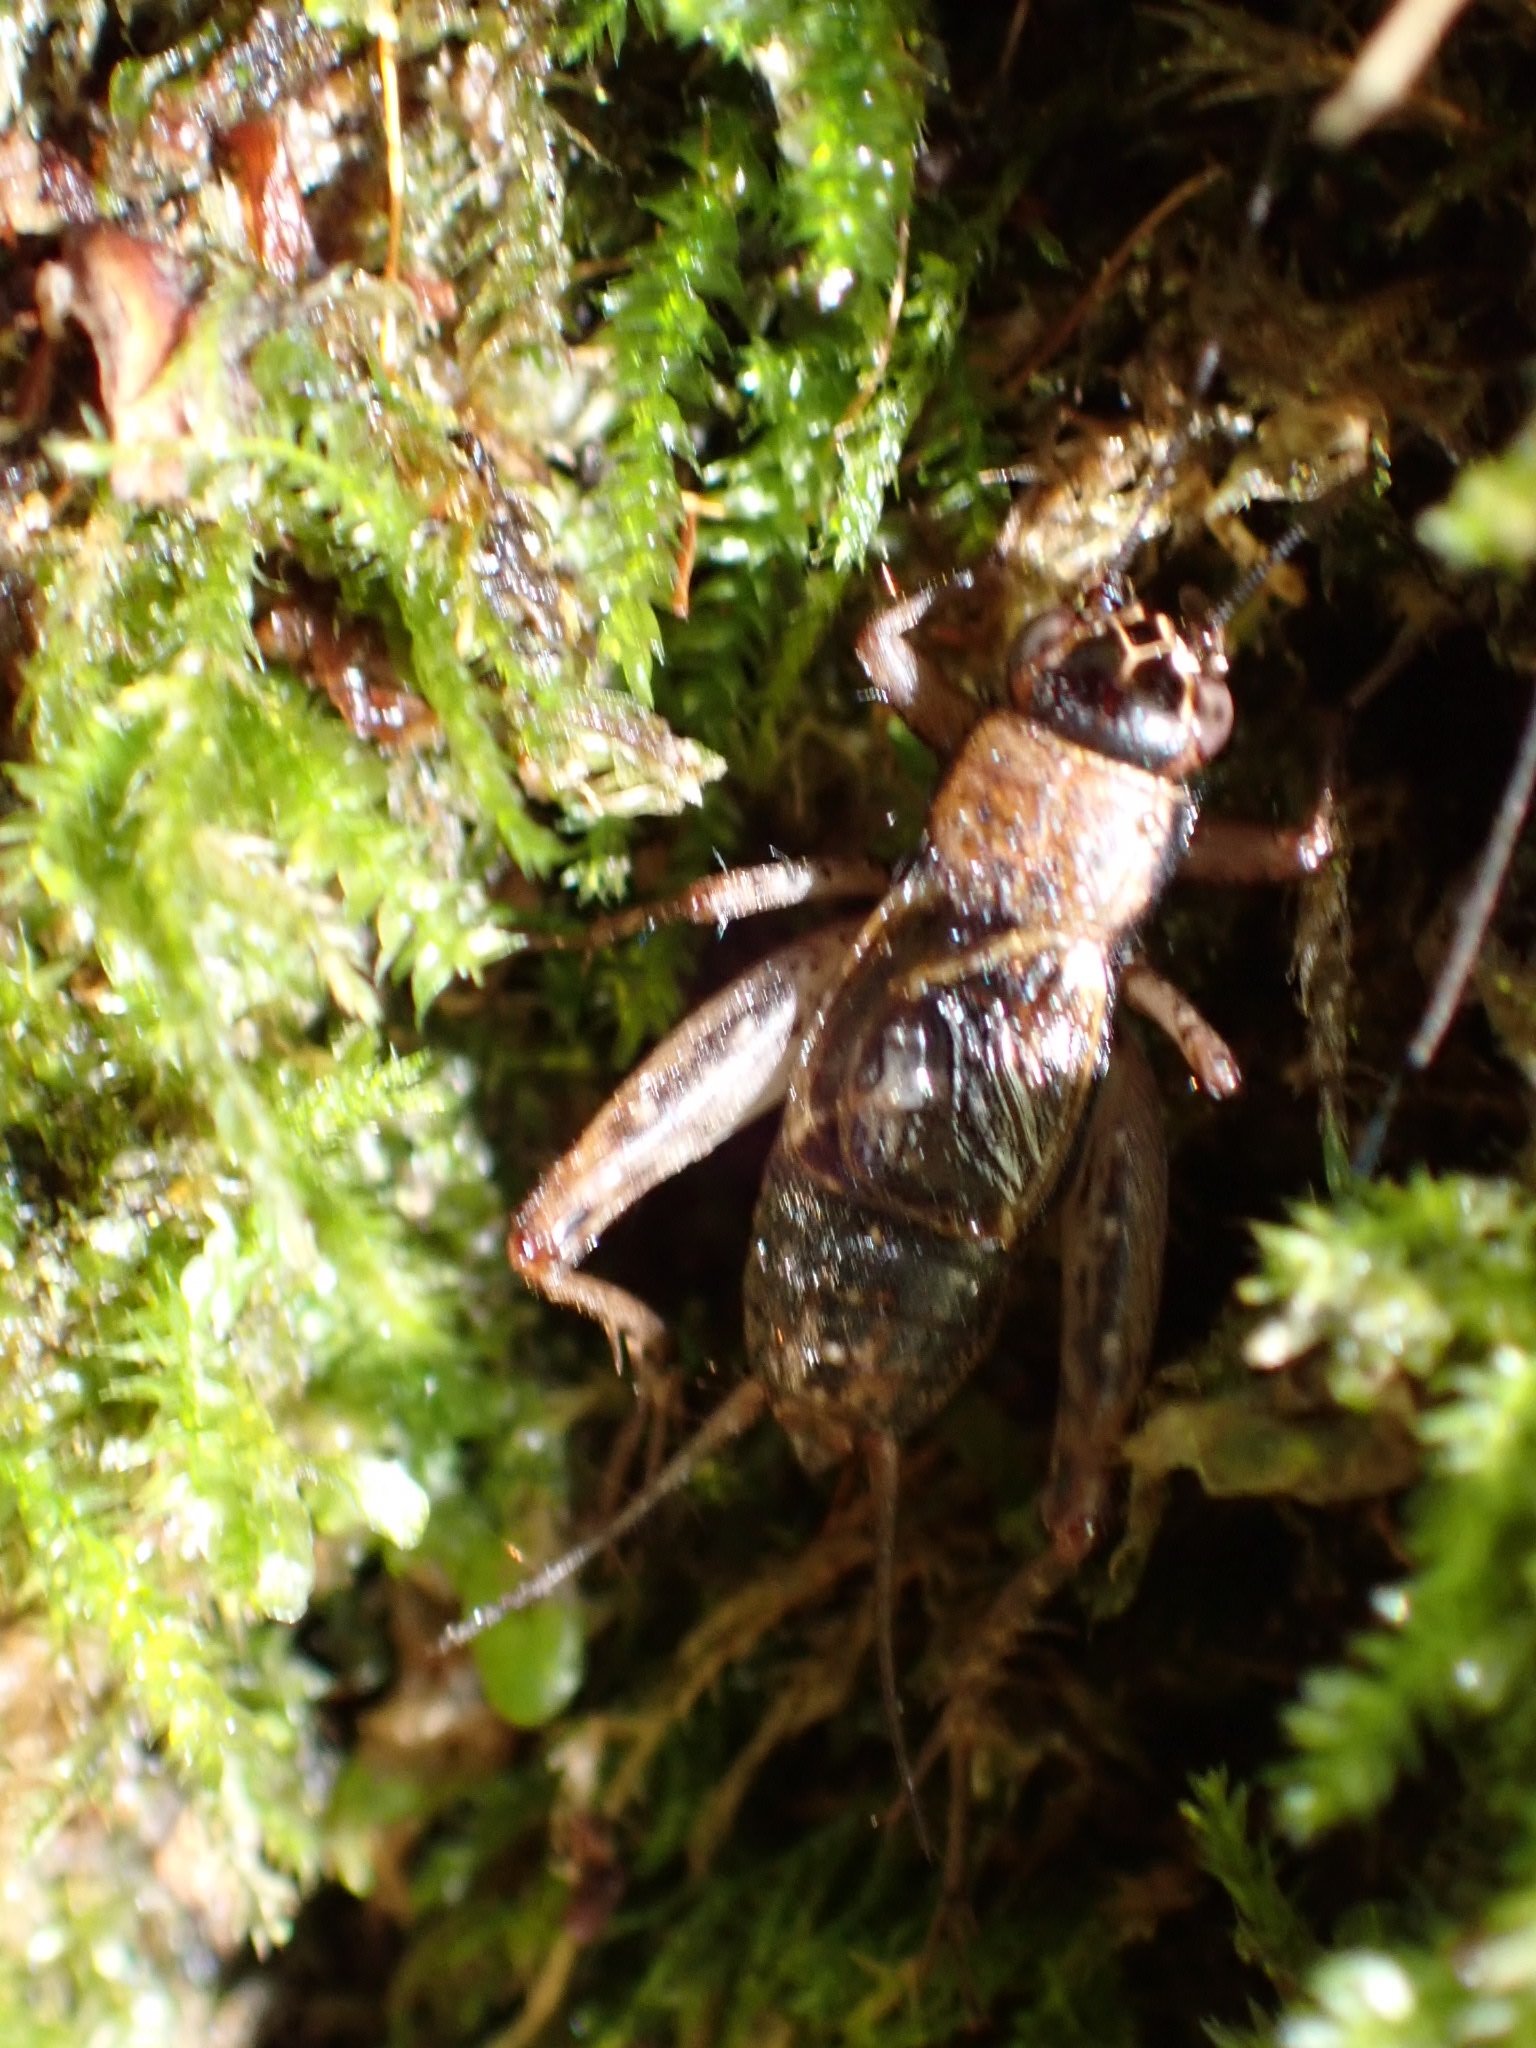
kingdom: Animalia
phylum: Arthropoda
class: Insecta
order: Orthoptera
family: Trigonidiidae
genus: Nemobius
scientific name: Nemobius sylvestris
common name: Wood-cricket
